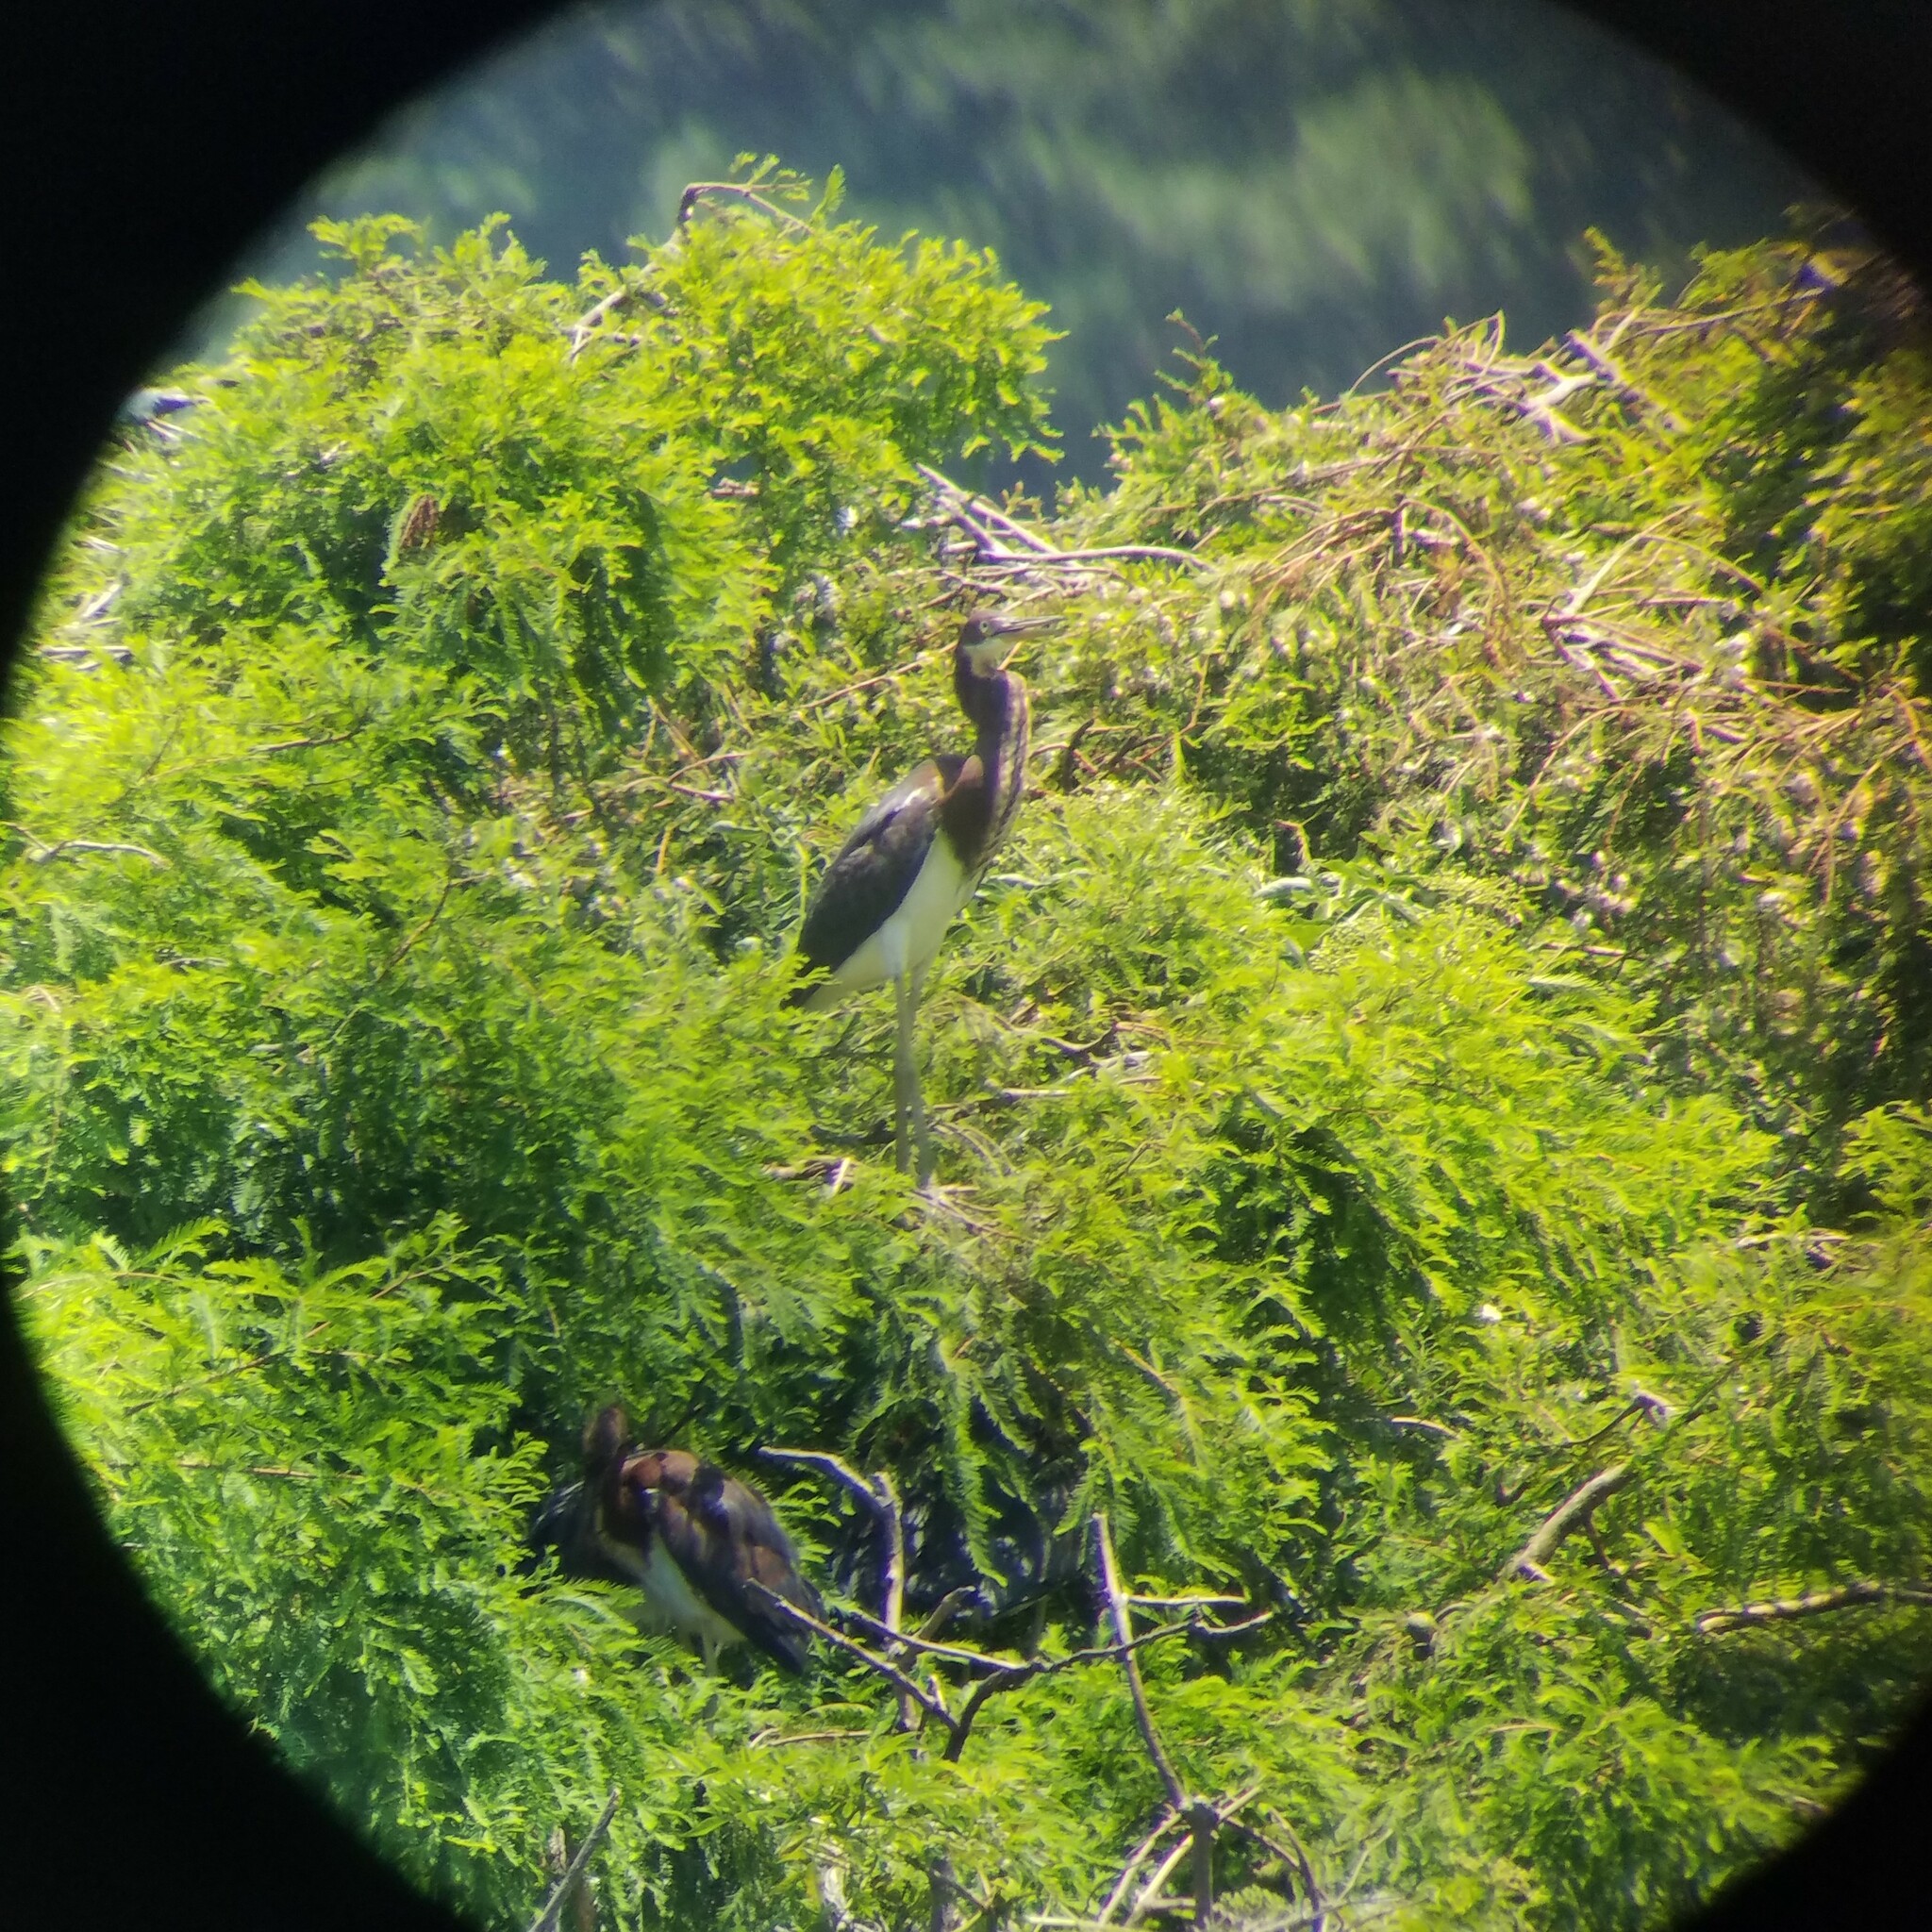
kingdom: Animalia
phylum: Chordata
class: Aves
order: Pelecaniformes
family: Ardeidae
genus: Egretta
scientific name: Egretta tricolor
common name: Tricolored heron
